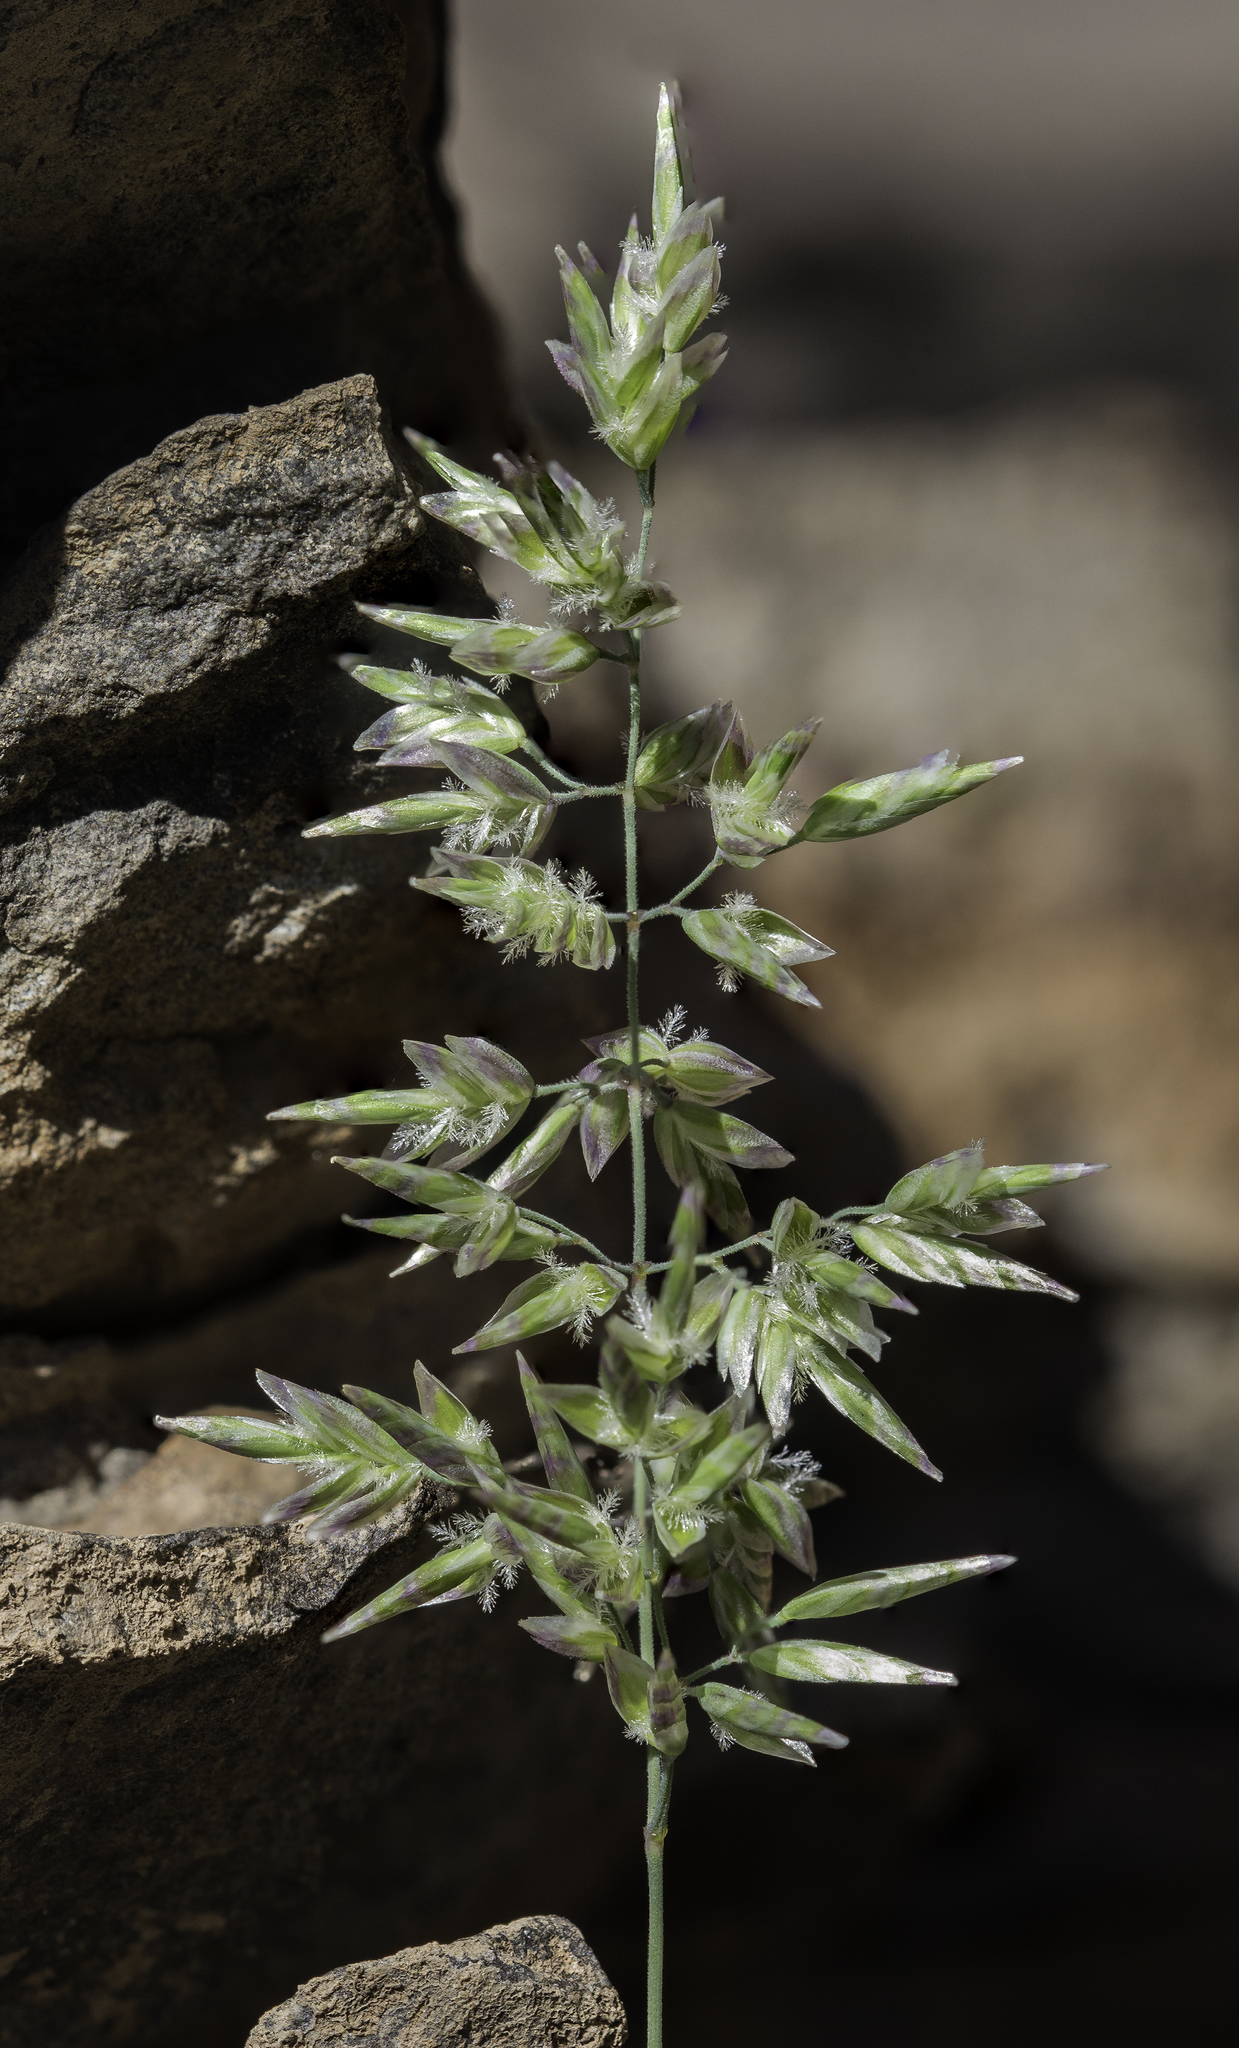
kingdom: Plantae
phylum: Tracheophyta
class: Liliopsida
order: Poales
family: Poaceae
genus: Poa
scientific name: Poa fendleriana
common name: Mutton bluegrass
